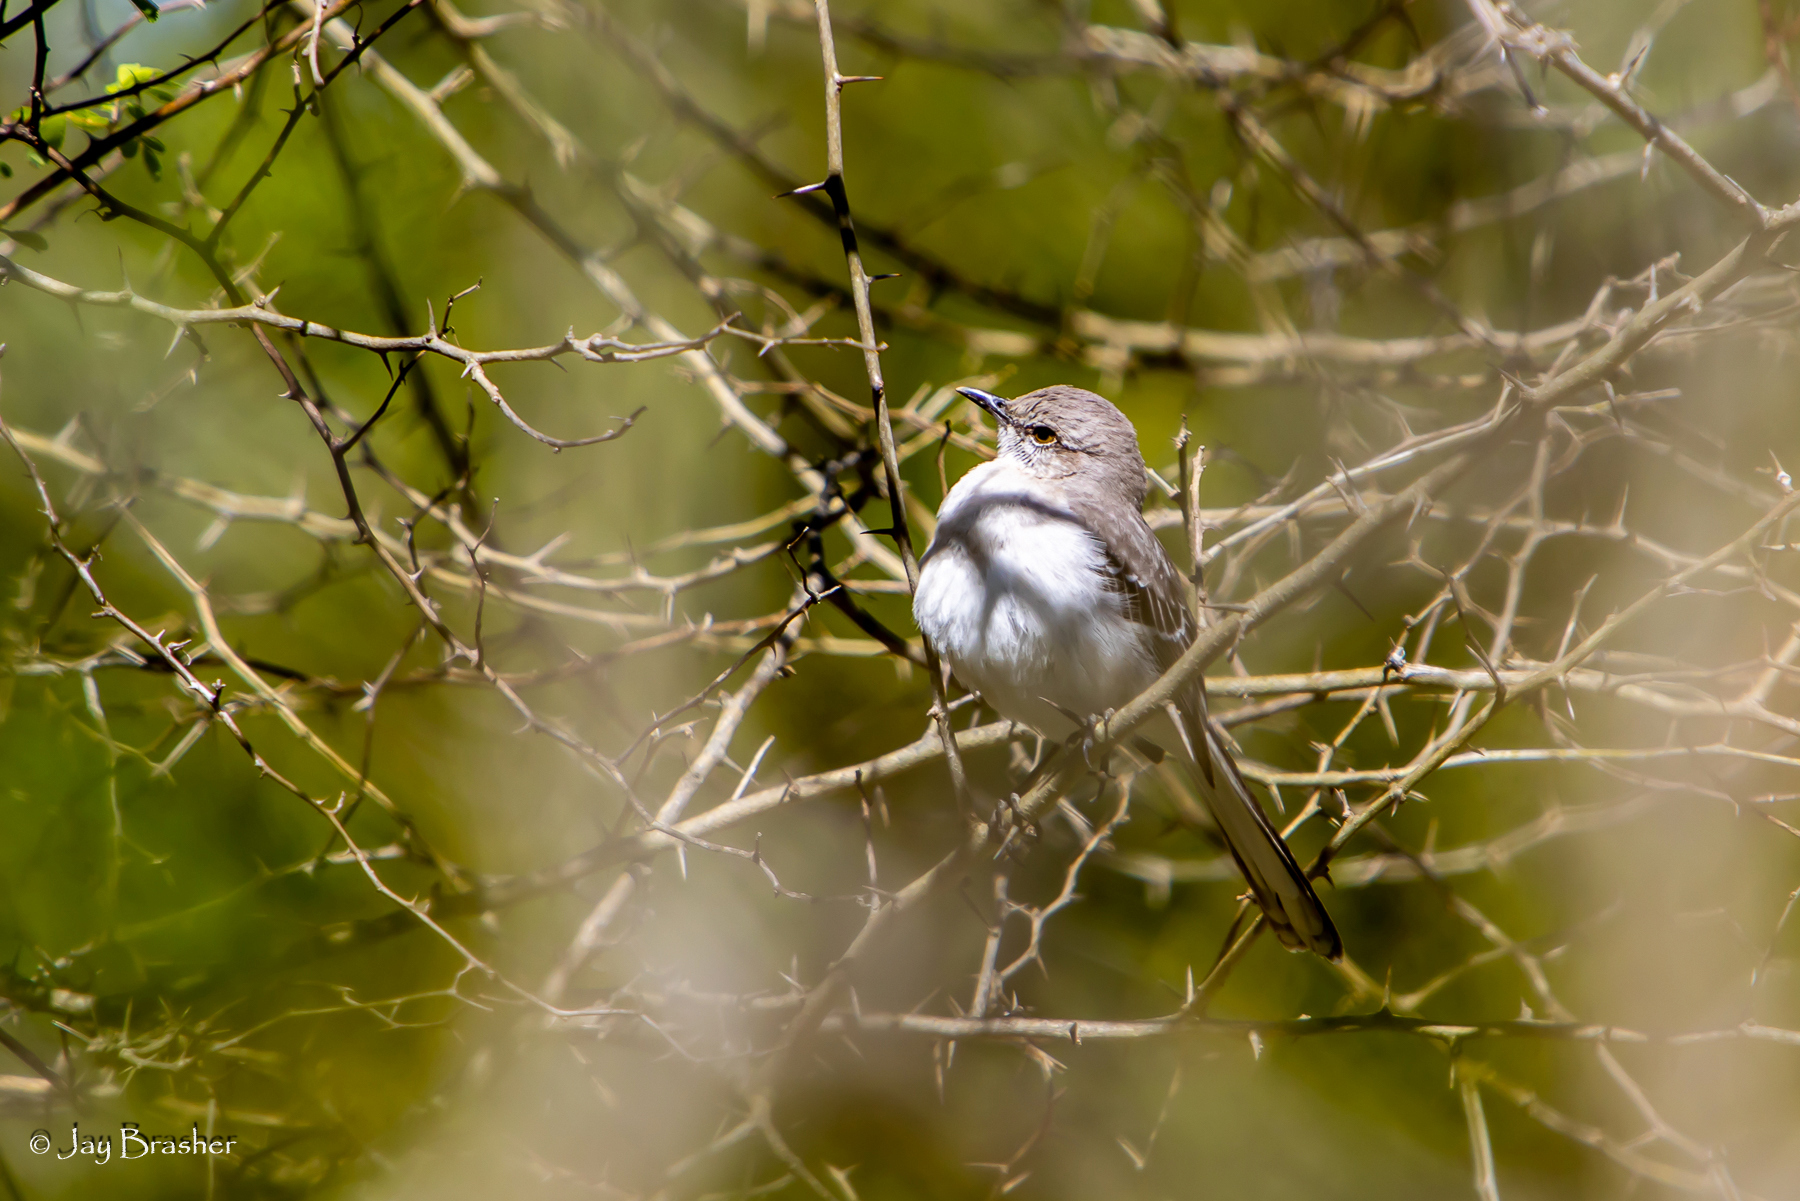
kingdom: Animalia
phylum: Chordata
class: Aves
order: Passeriformes
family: Mimidae
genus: Mimus
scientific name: Mimus polyglottos
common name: Northern mockingbird
